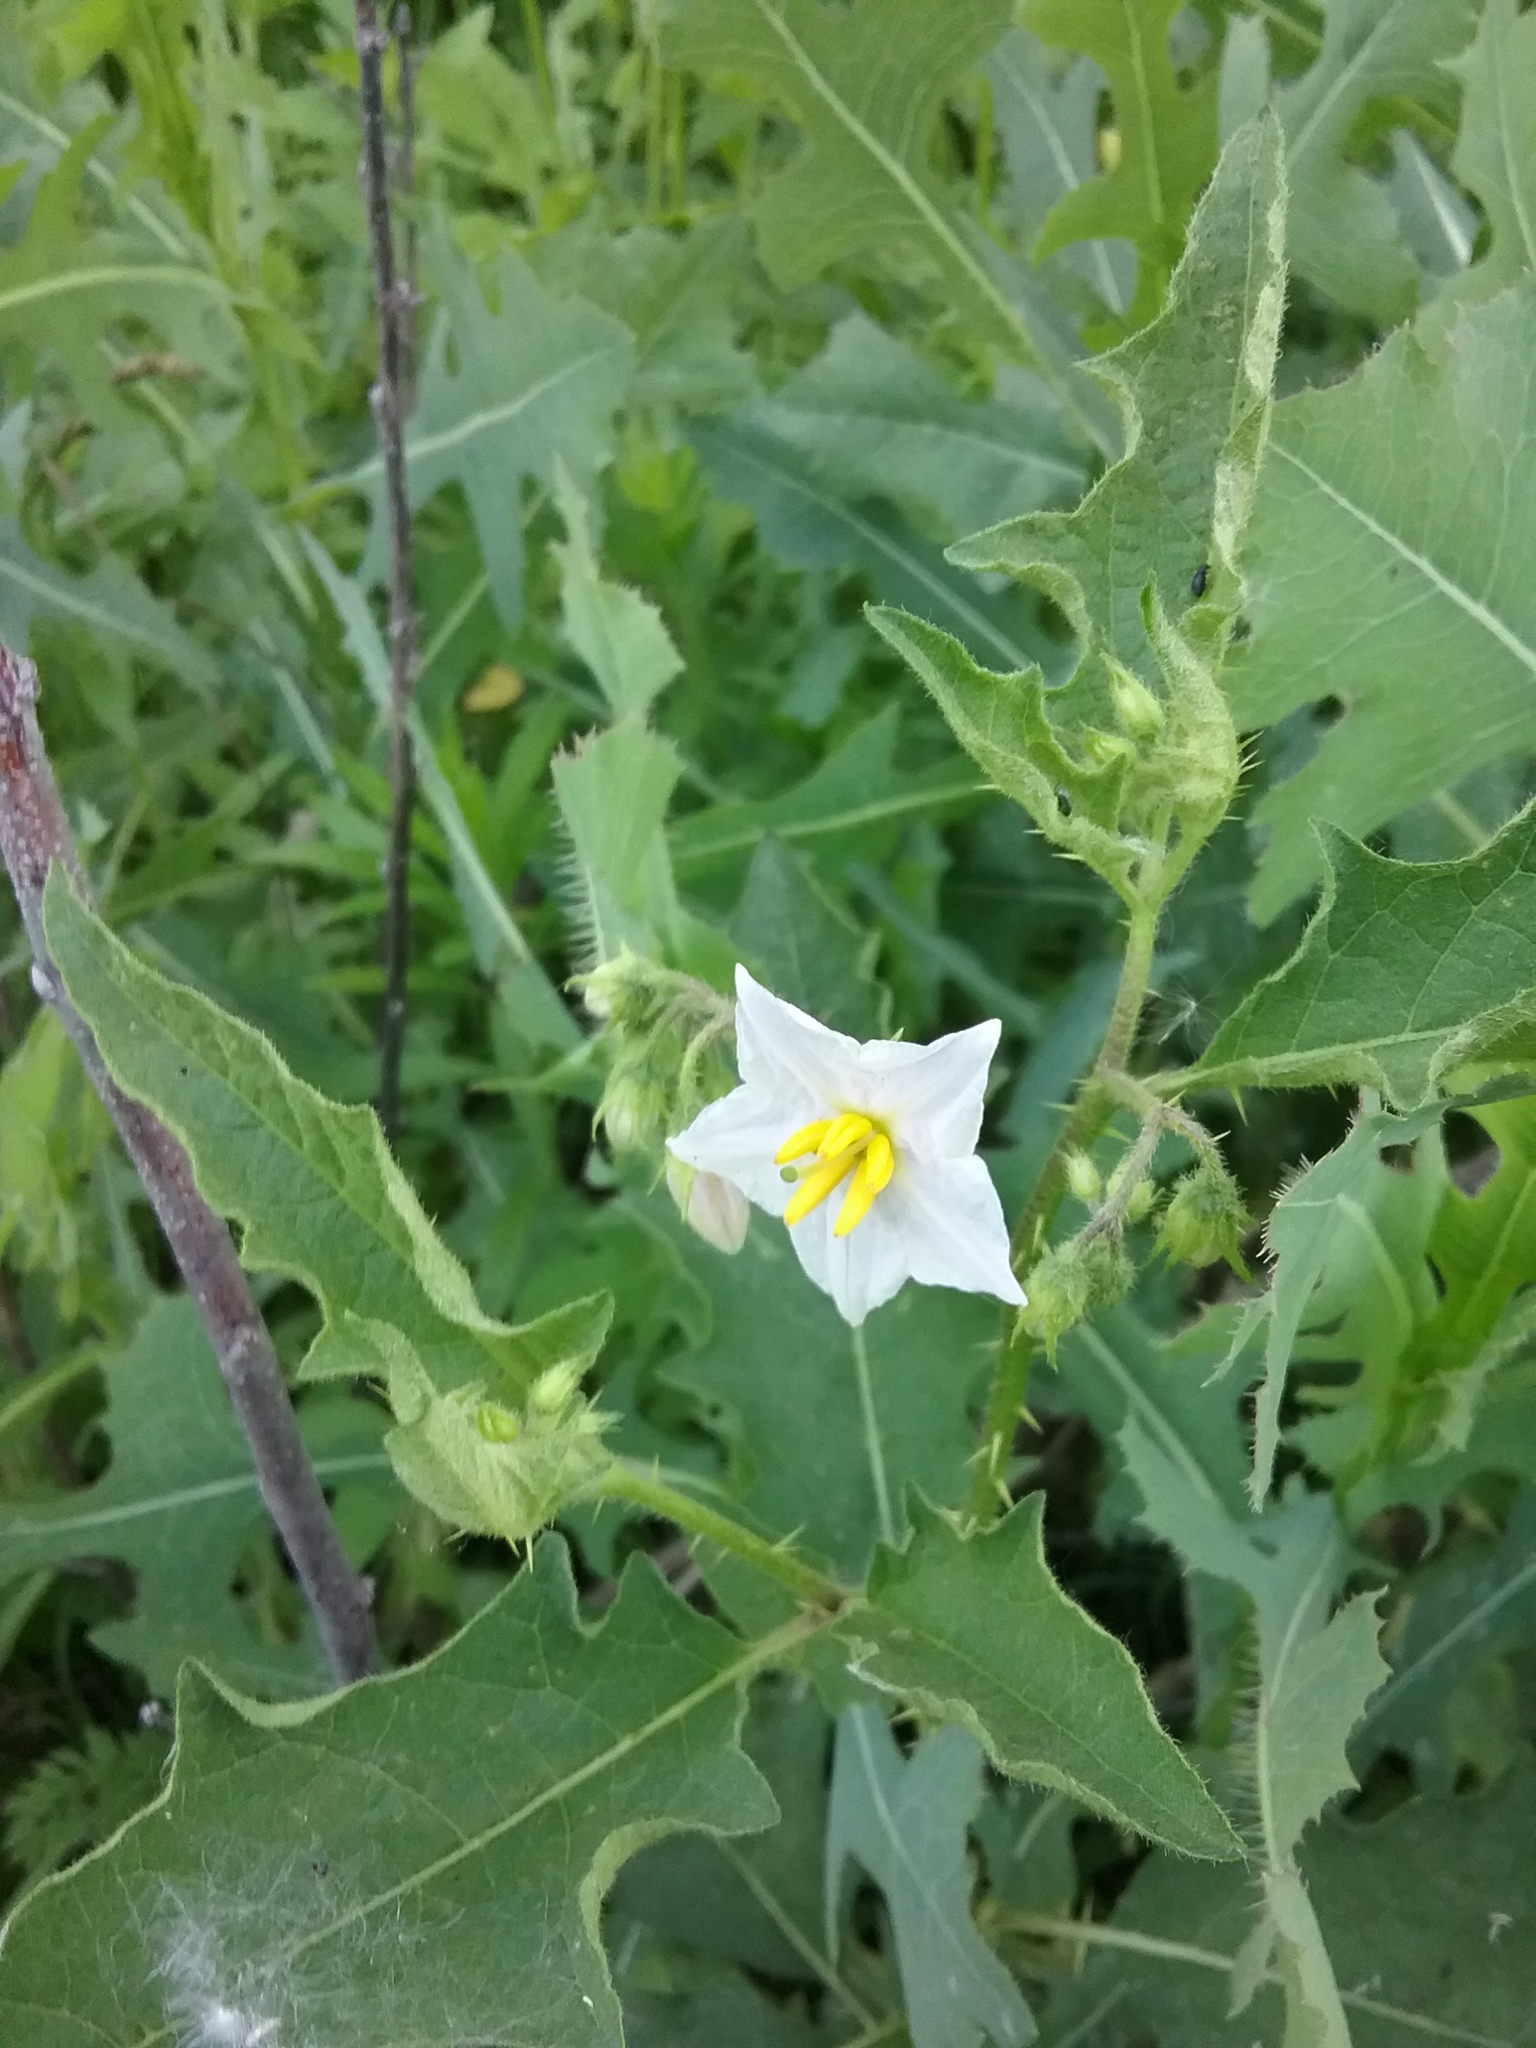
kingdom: Plantae
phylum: Tracheophyta
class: Magnoliopsida
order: Solanales
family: Solanaceae
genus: Solanum
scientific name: Solanum carolinense
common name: Horse-nettle
